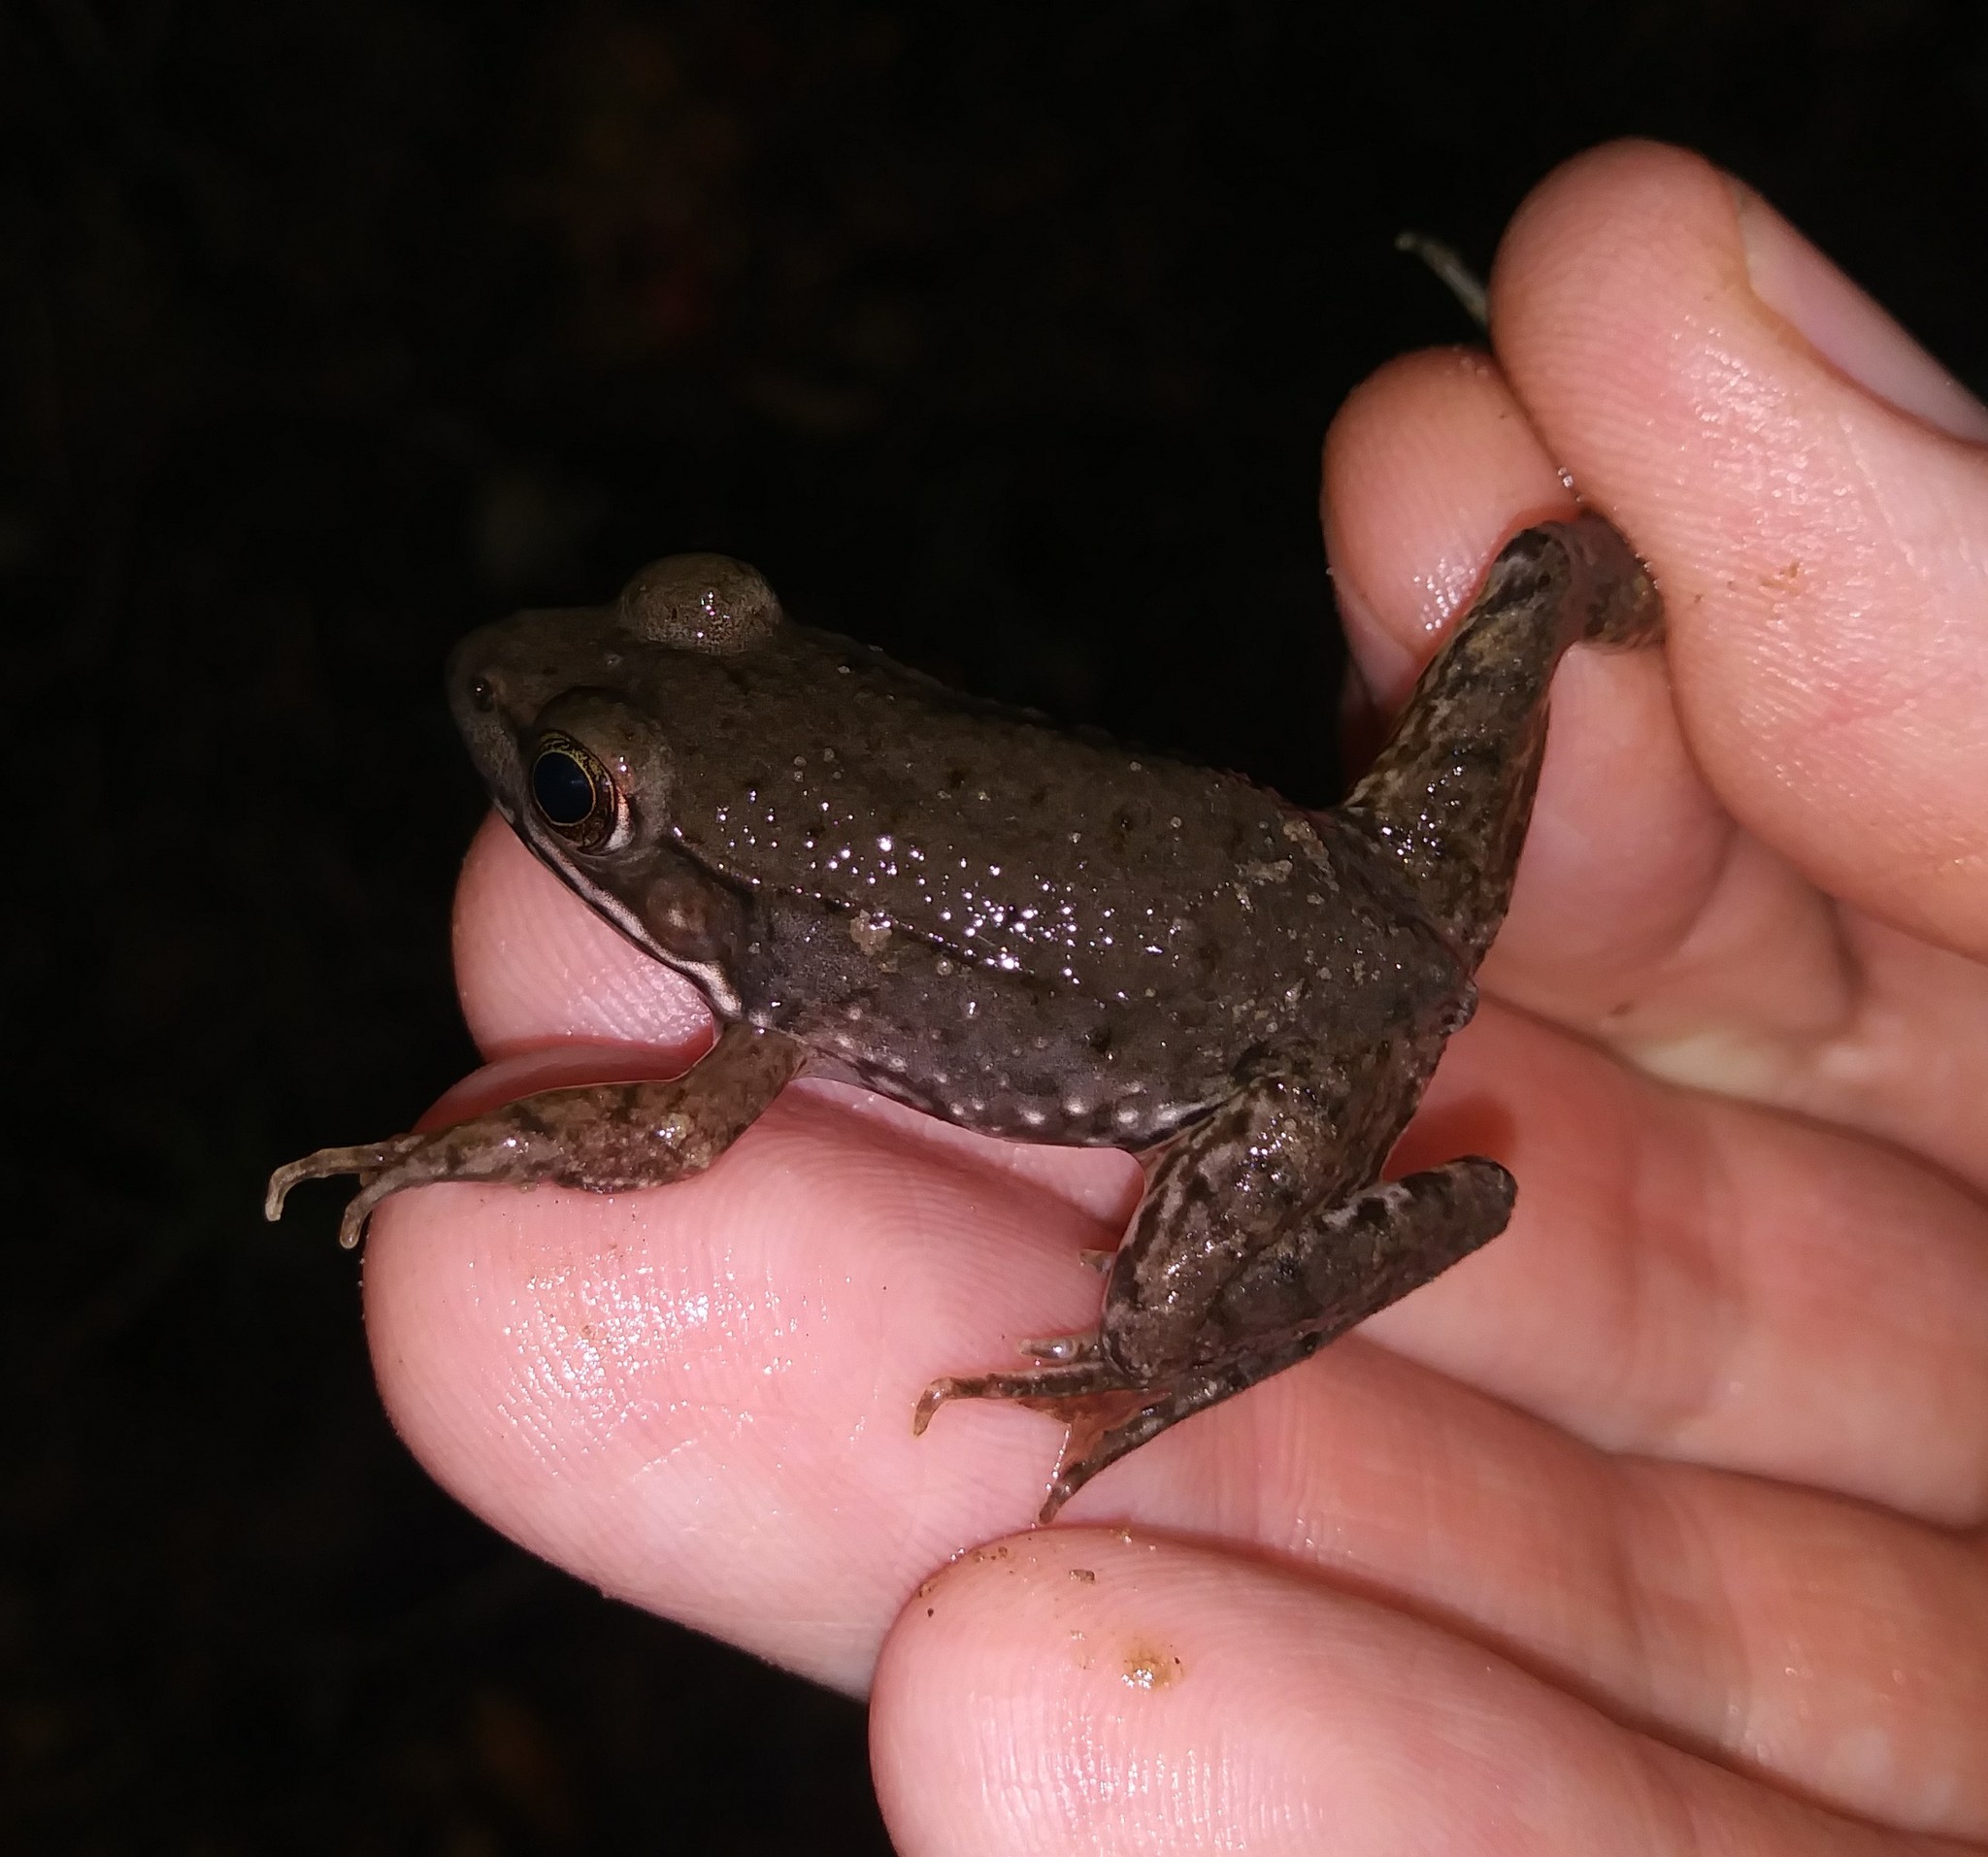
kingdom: Animalia
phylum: Chordata
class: Amphibia
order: Anura
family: Ranidae
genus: Lithobates
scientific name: Lithobates clamitans
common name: Green frog
